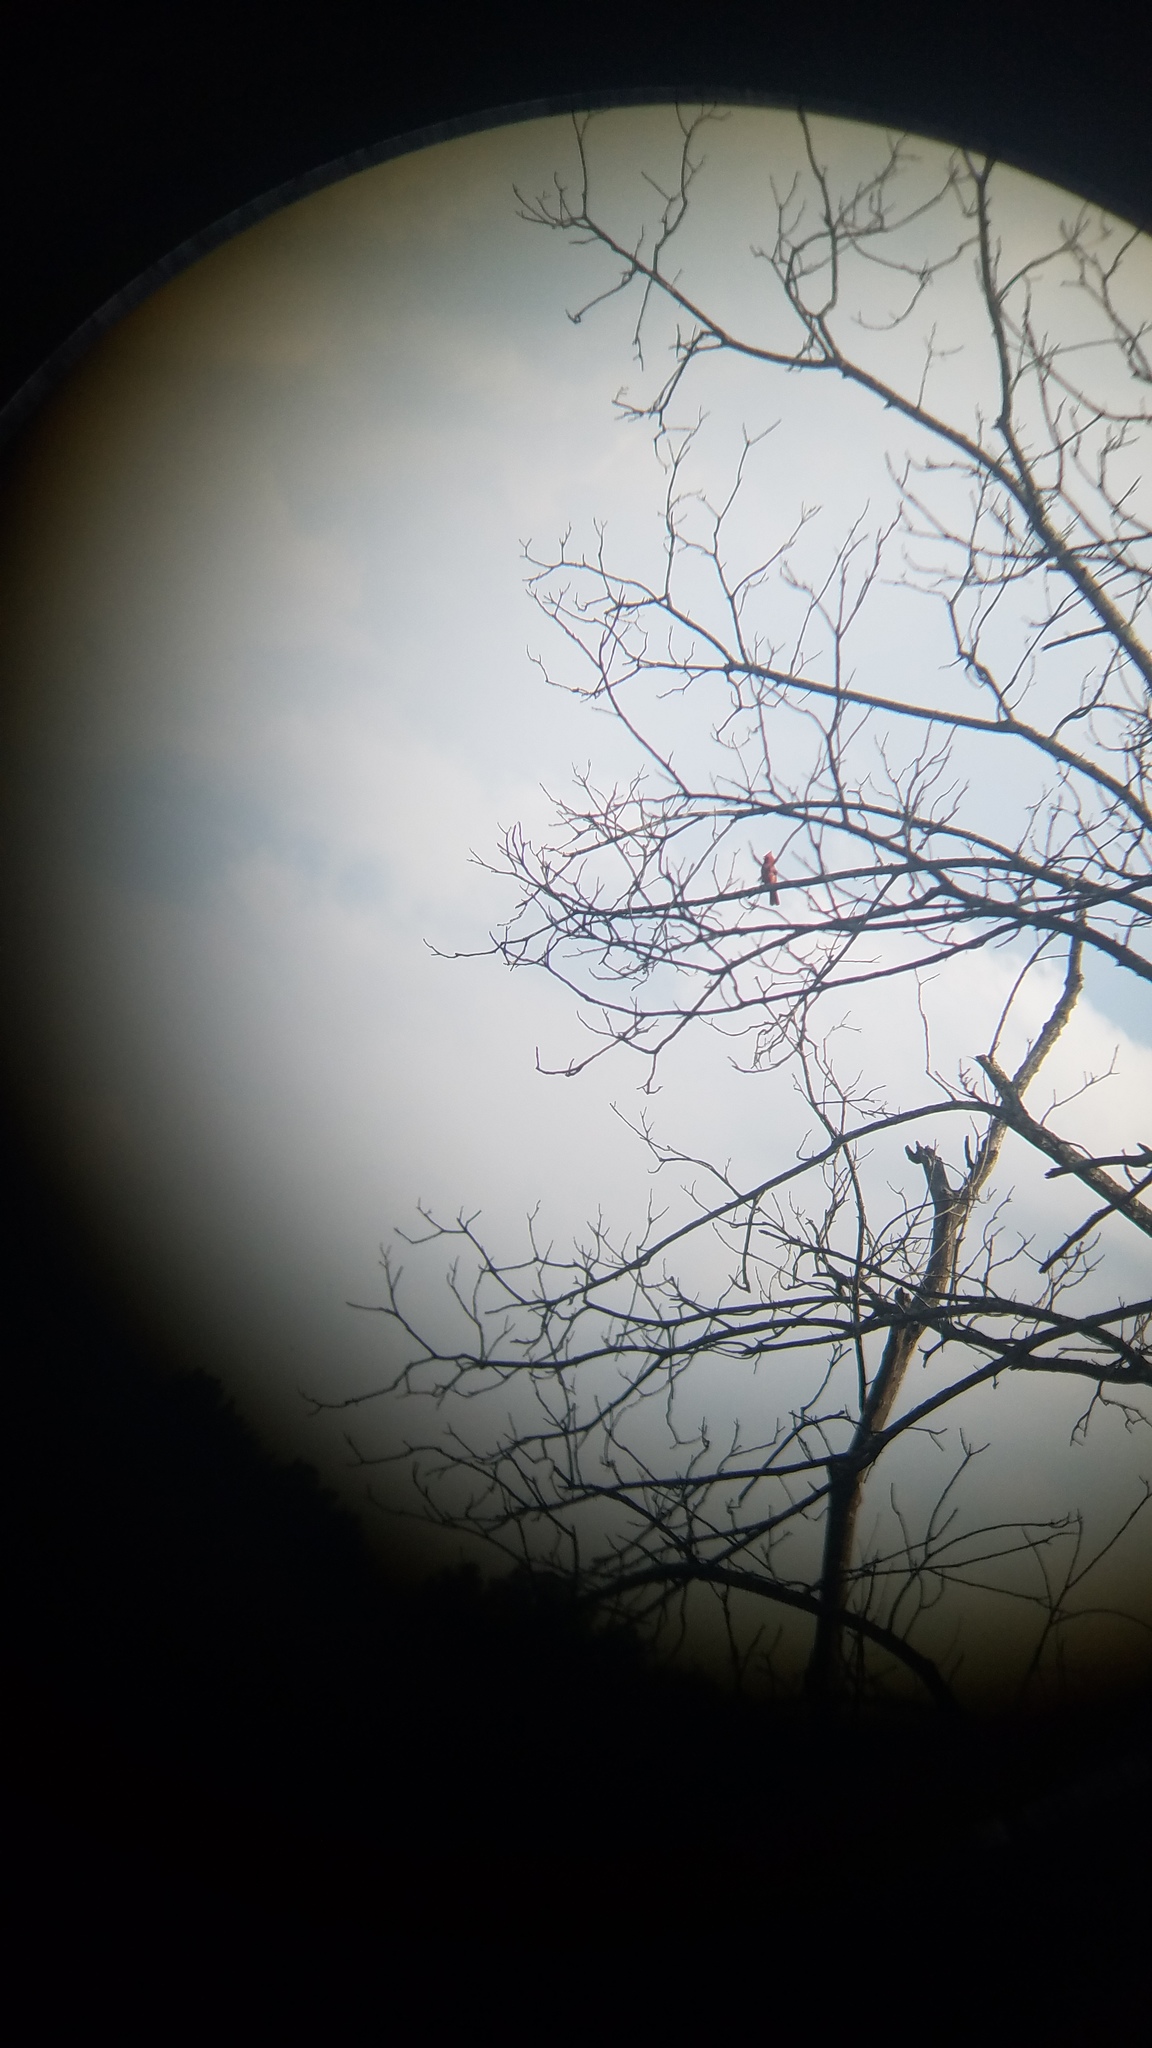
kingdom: Animalia
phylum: Chordata
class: Aves
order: Passeriformes
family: Cardinalidae
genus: Cardinalis
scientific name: Cardinalis cardinalis
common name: Northern cardinal
